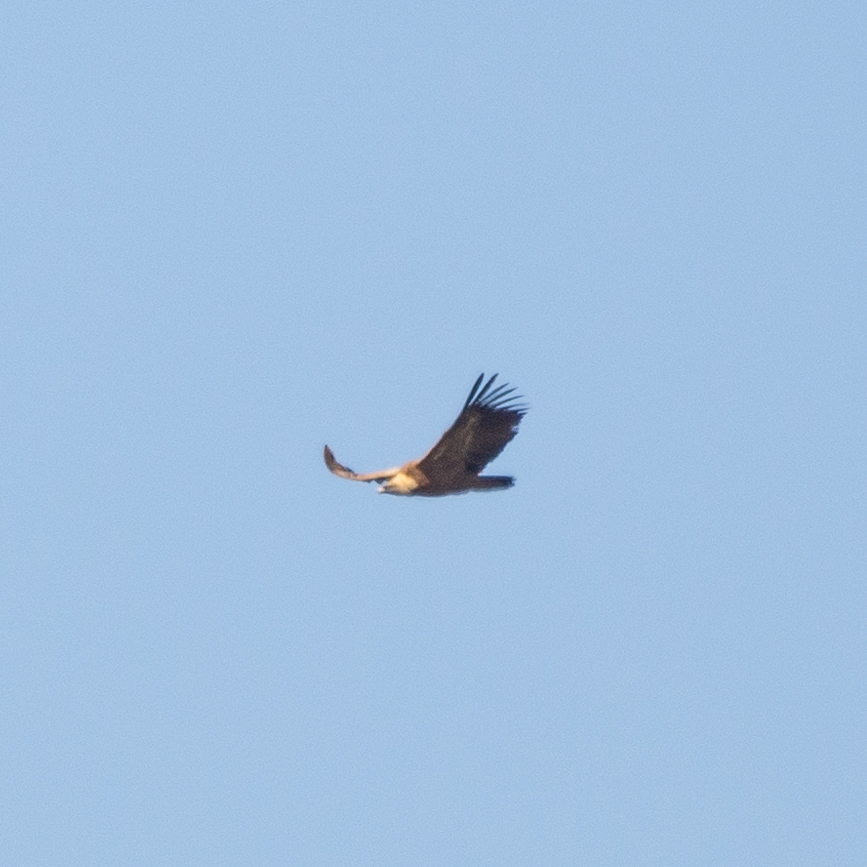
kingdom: Animalia
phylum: Chordata
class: Aves
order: Accipitriformes
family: Accipitridae
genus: Gyps
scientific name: Gyps fulvus
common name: Griffon vulture
